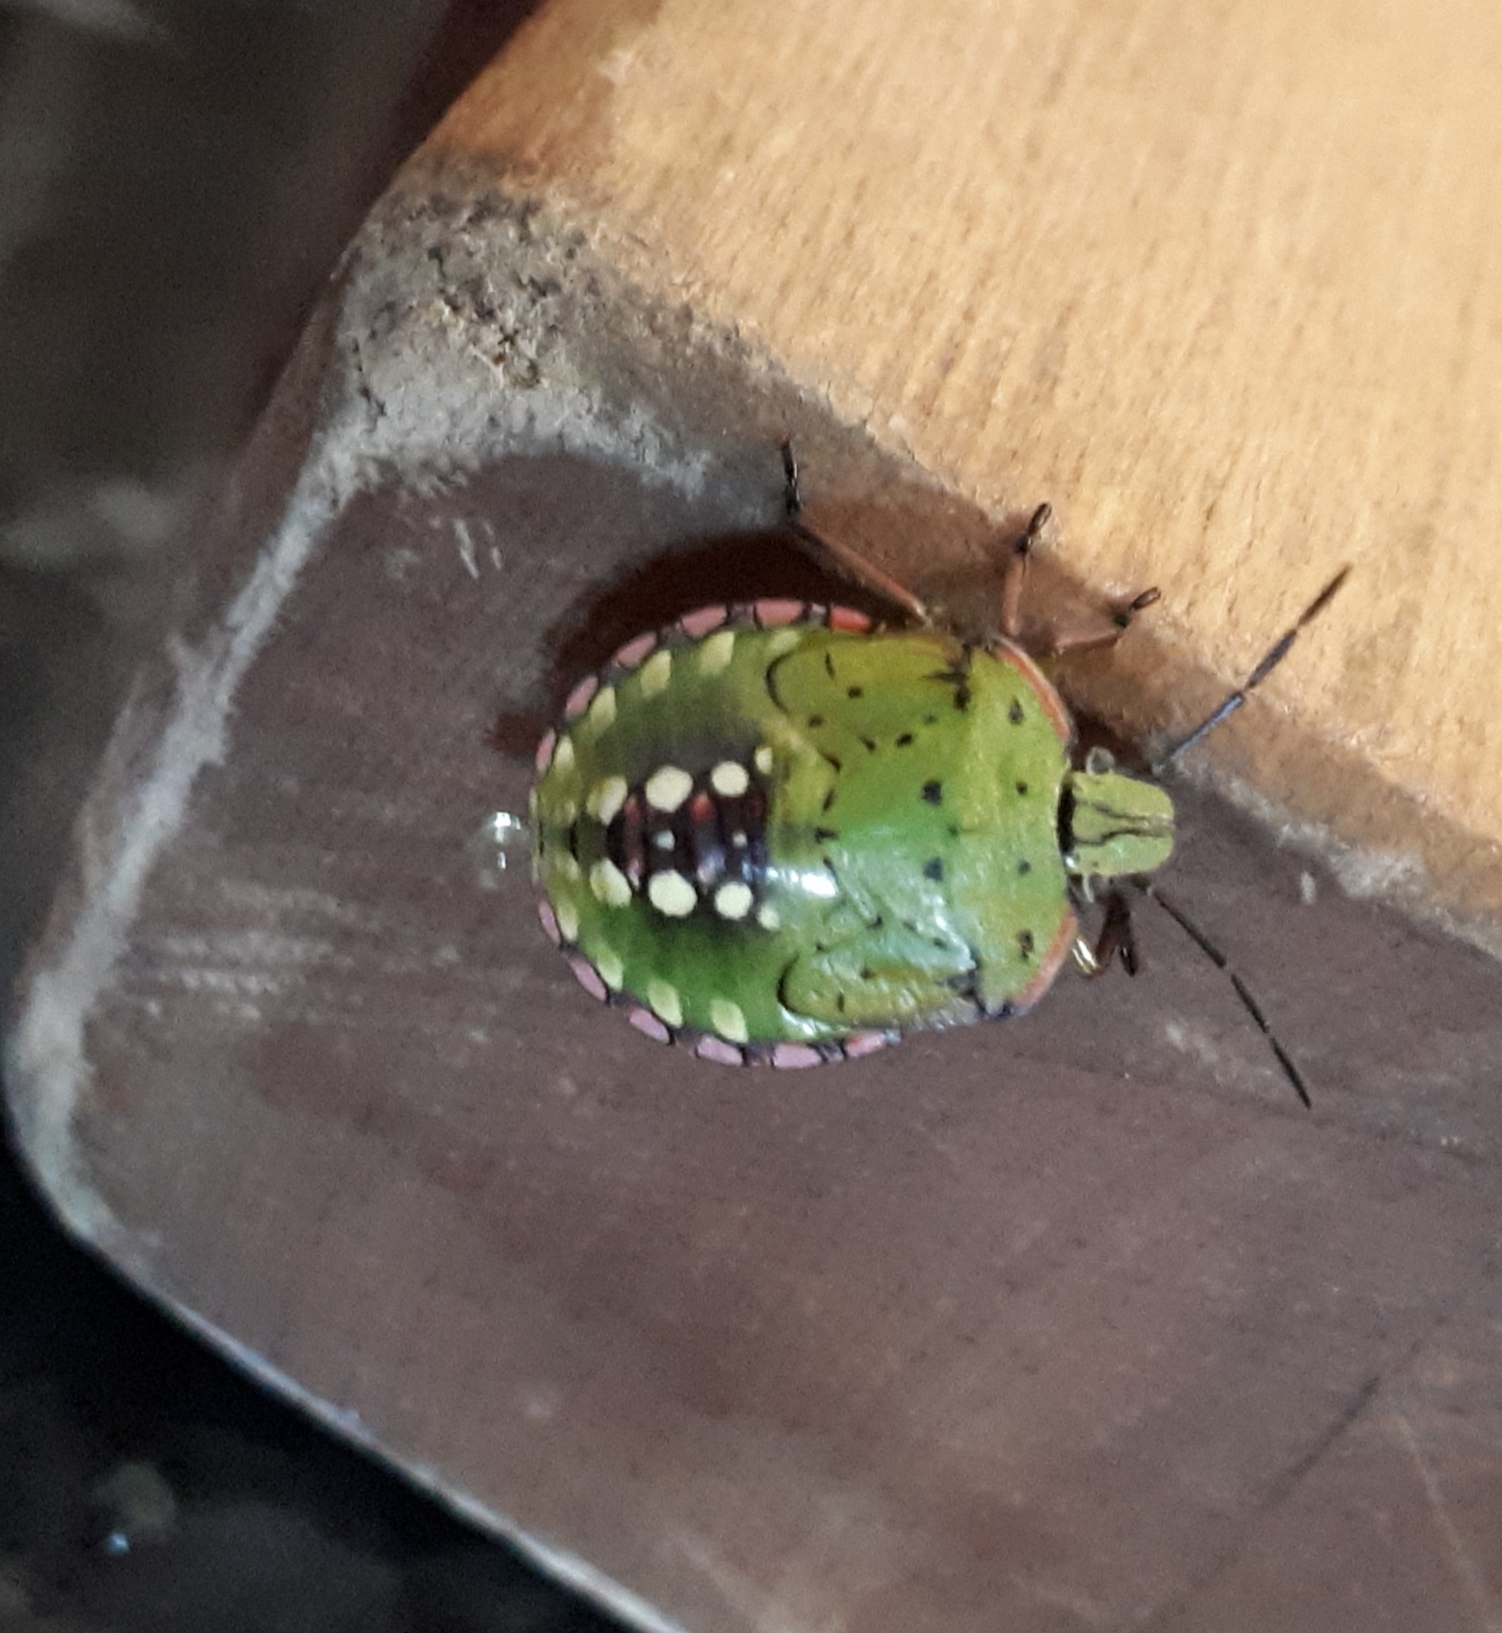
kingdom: Animalia
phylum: Arthropoda
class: Insecta
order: Hemiptera
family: Pentatomidae
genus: Nezara
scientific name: Nezara viridula
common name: Southern green stink bug
